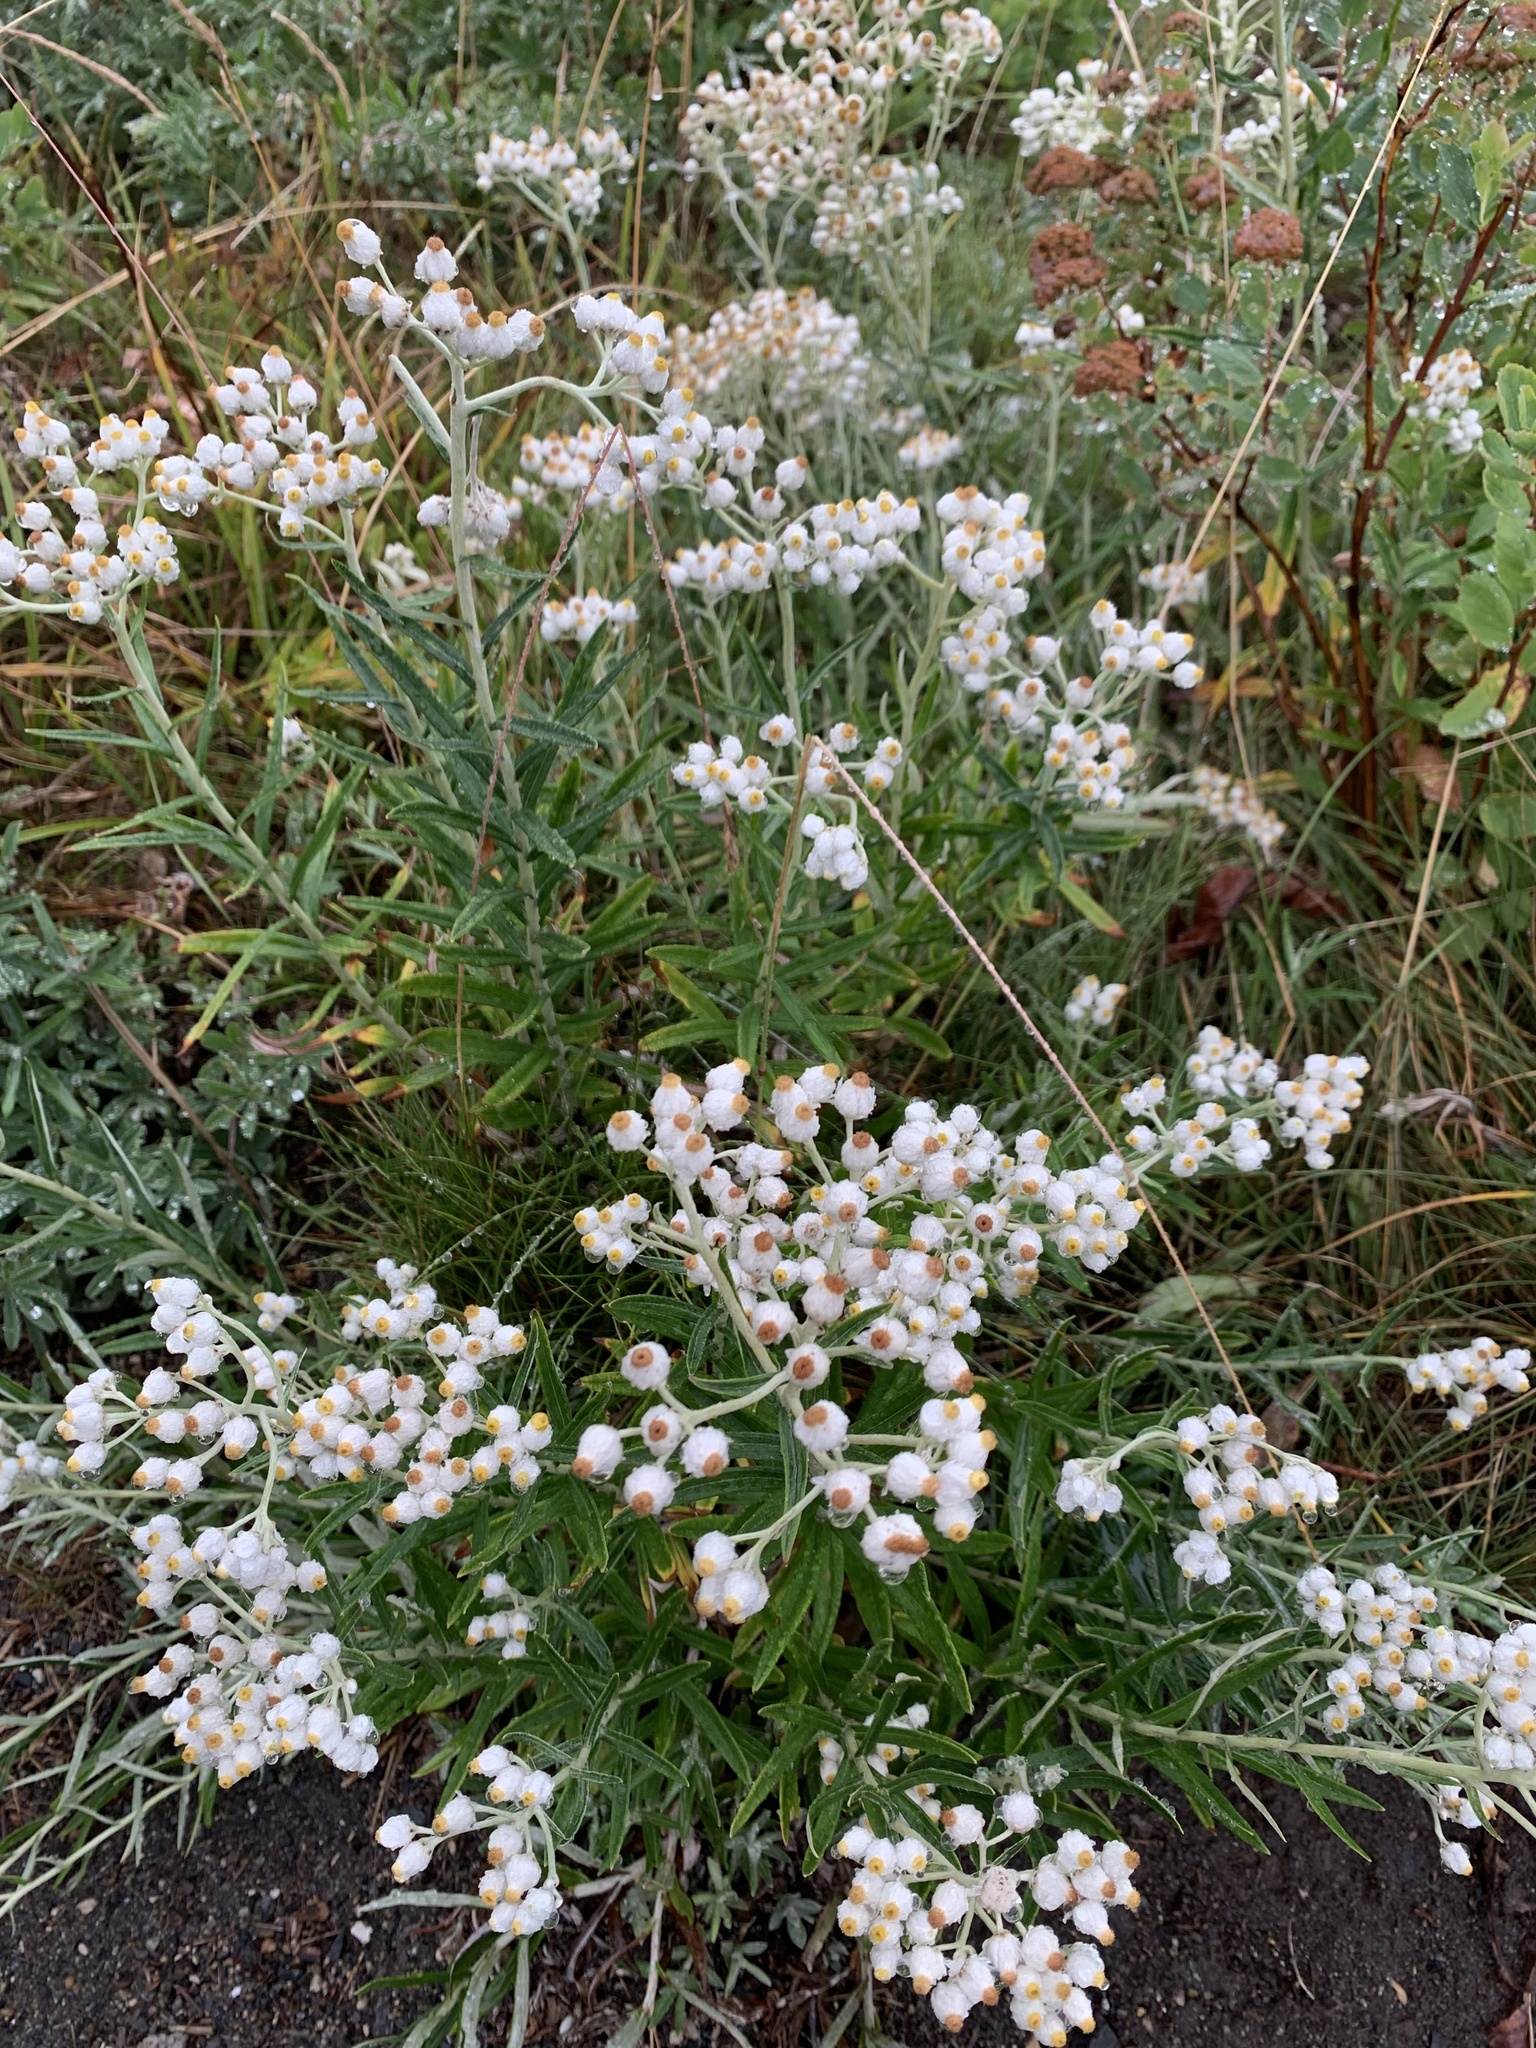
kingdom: Plantae
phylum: Tracheophyta
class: Magnoliopsida
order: Asterales
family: Asteraceae
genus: Anaphalis
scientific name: Anaphalis margaritacea
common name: Pearly everlasting
